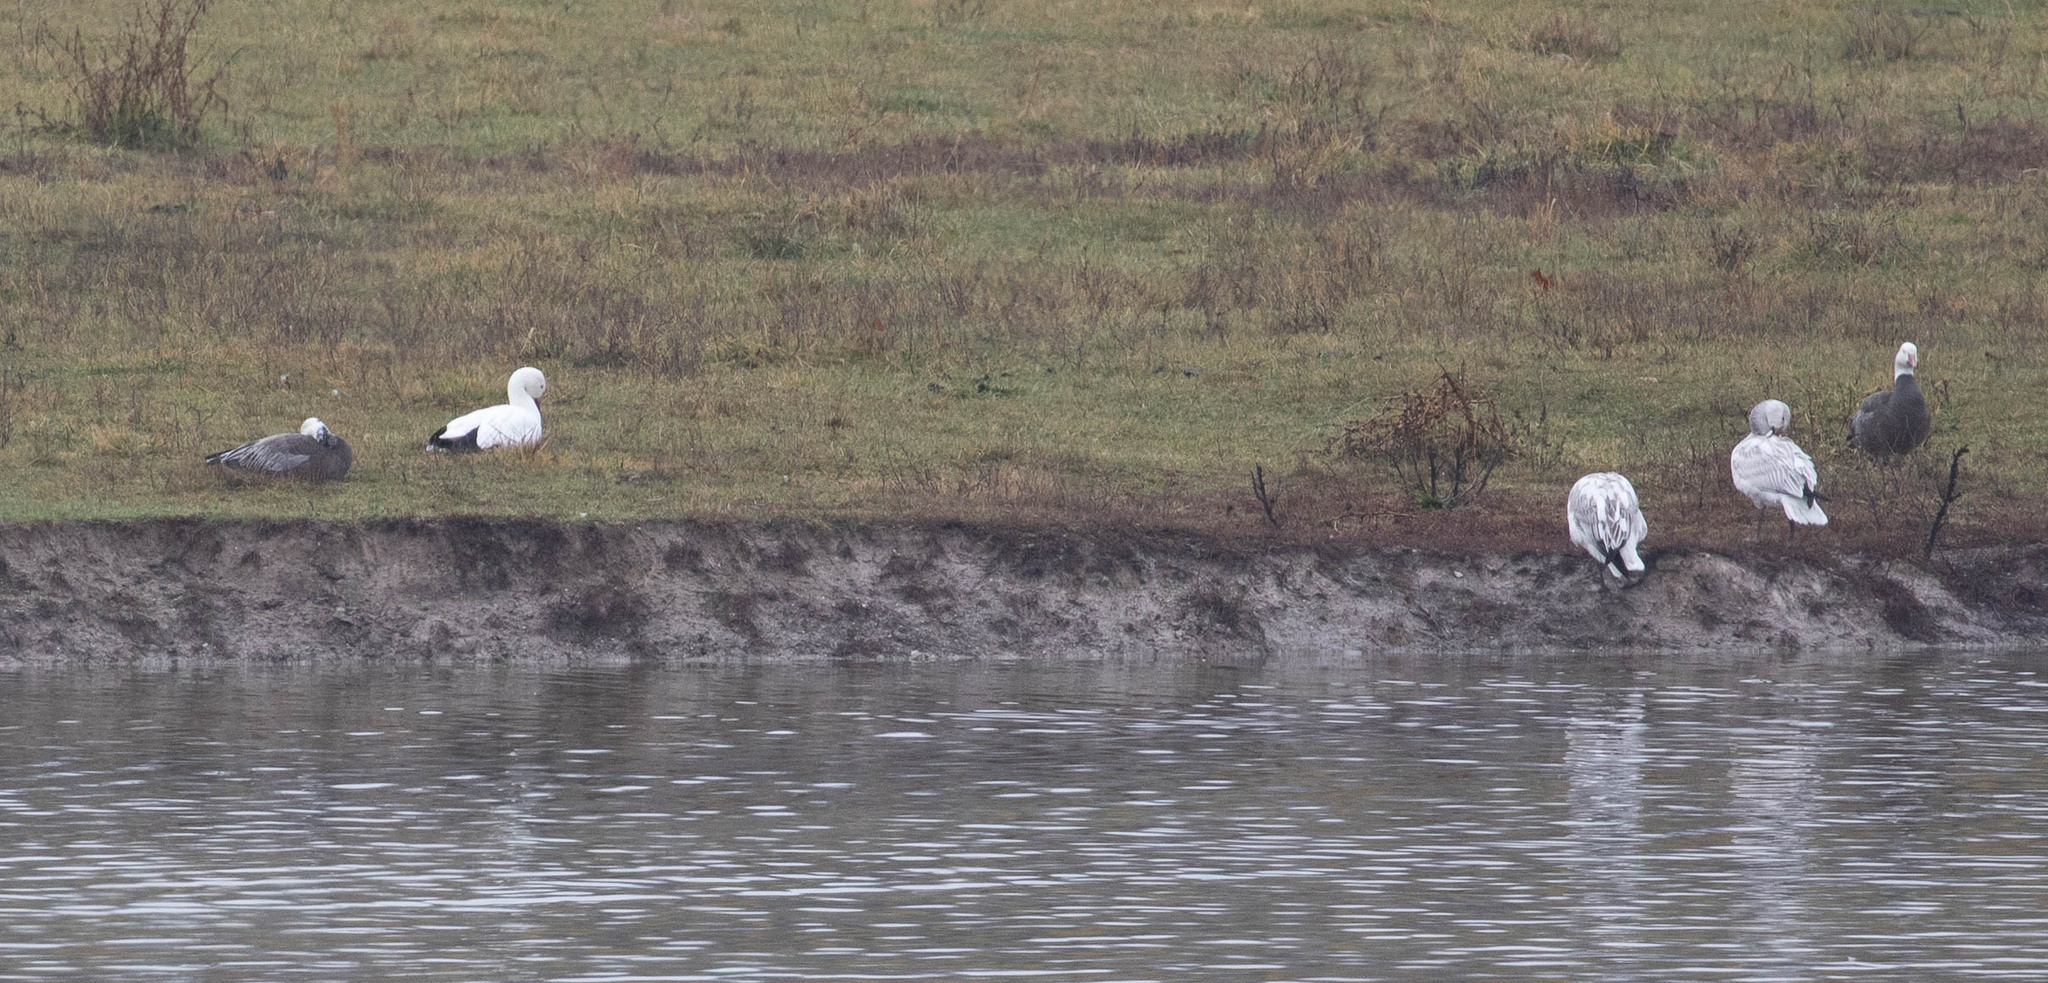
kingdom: Animalia
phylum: Chordata
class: Aves
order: Anseriformes
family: Anatidae
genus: Anser
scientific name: Anser caerulescens
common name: Snow goose
